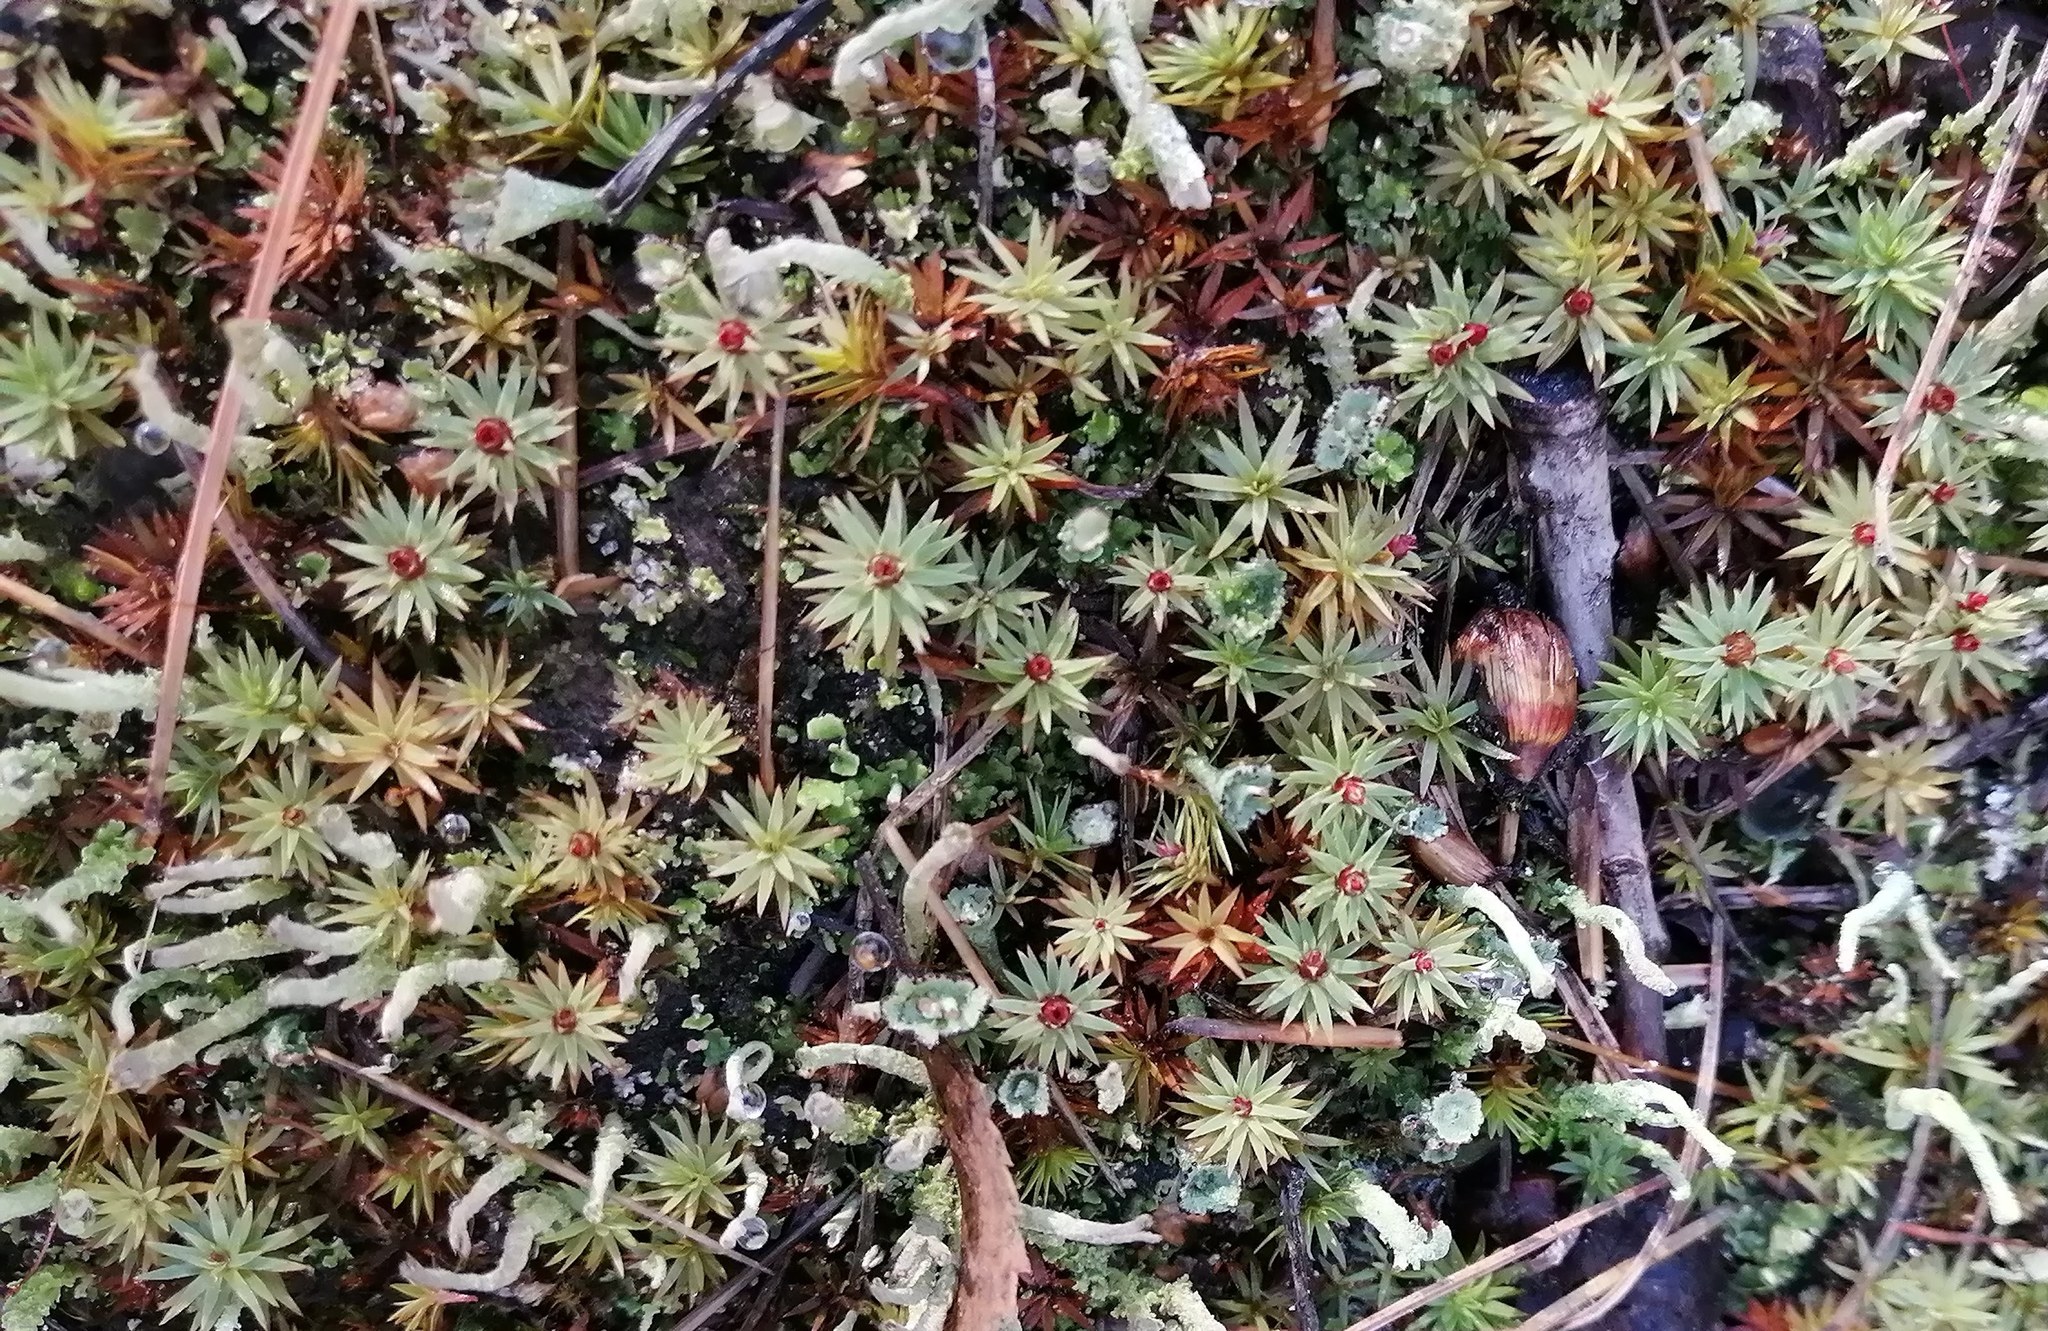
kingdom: Plantae
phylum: Bryophyta
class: Polytrichopsida
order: Polytrichales
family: Polytrichaceae
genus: Pogonatum
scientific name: Pogonatum urnigerum
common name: Urn hair moss
